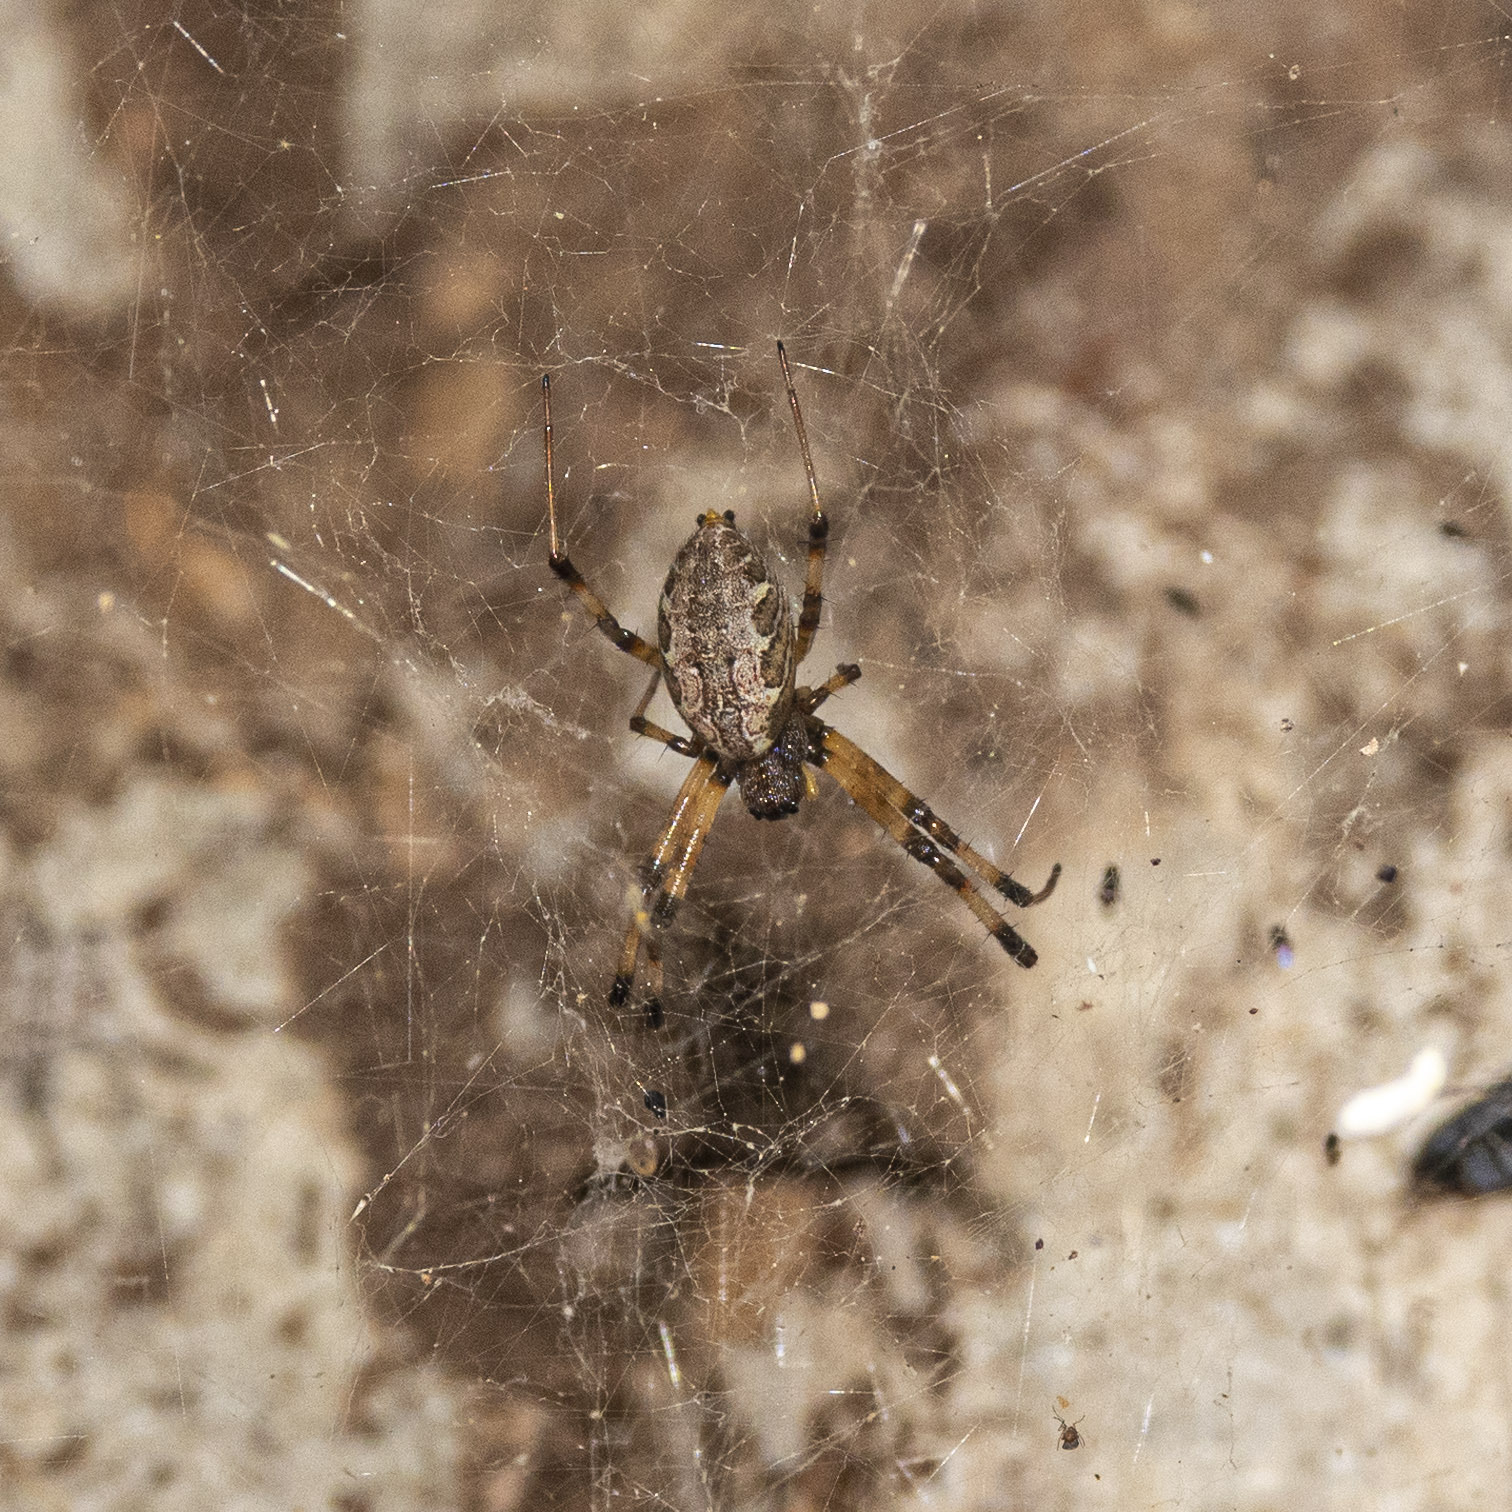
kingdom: Animalia
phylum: Arthropoda
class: Arachnida
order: Araneae
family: Araneidae
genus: Nephilengys
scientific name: Nephilengys malabarensis
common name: Asian hermit spider
